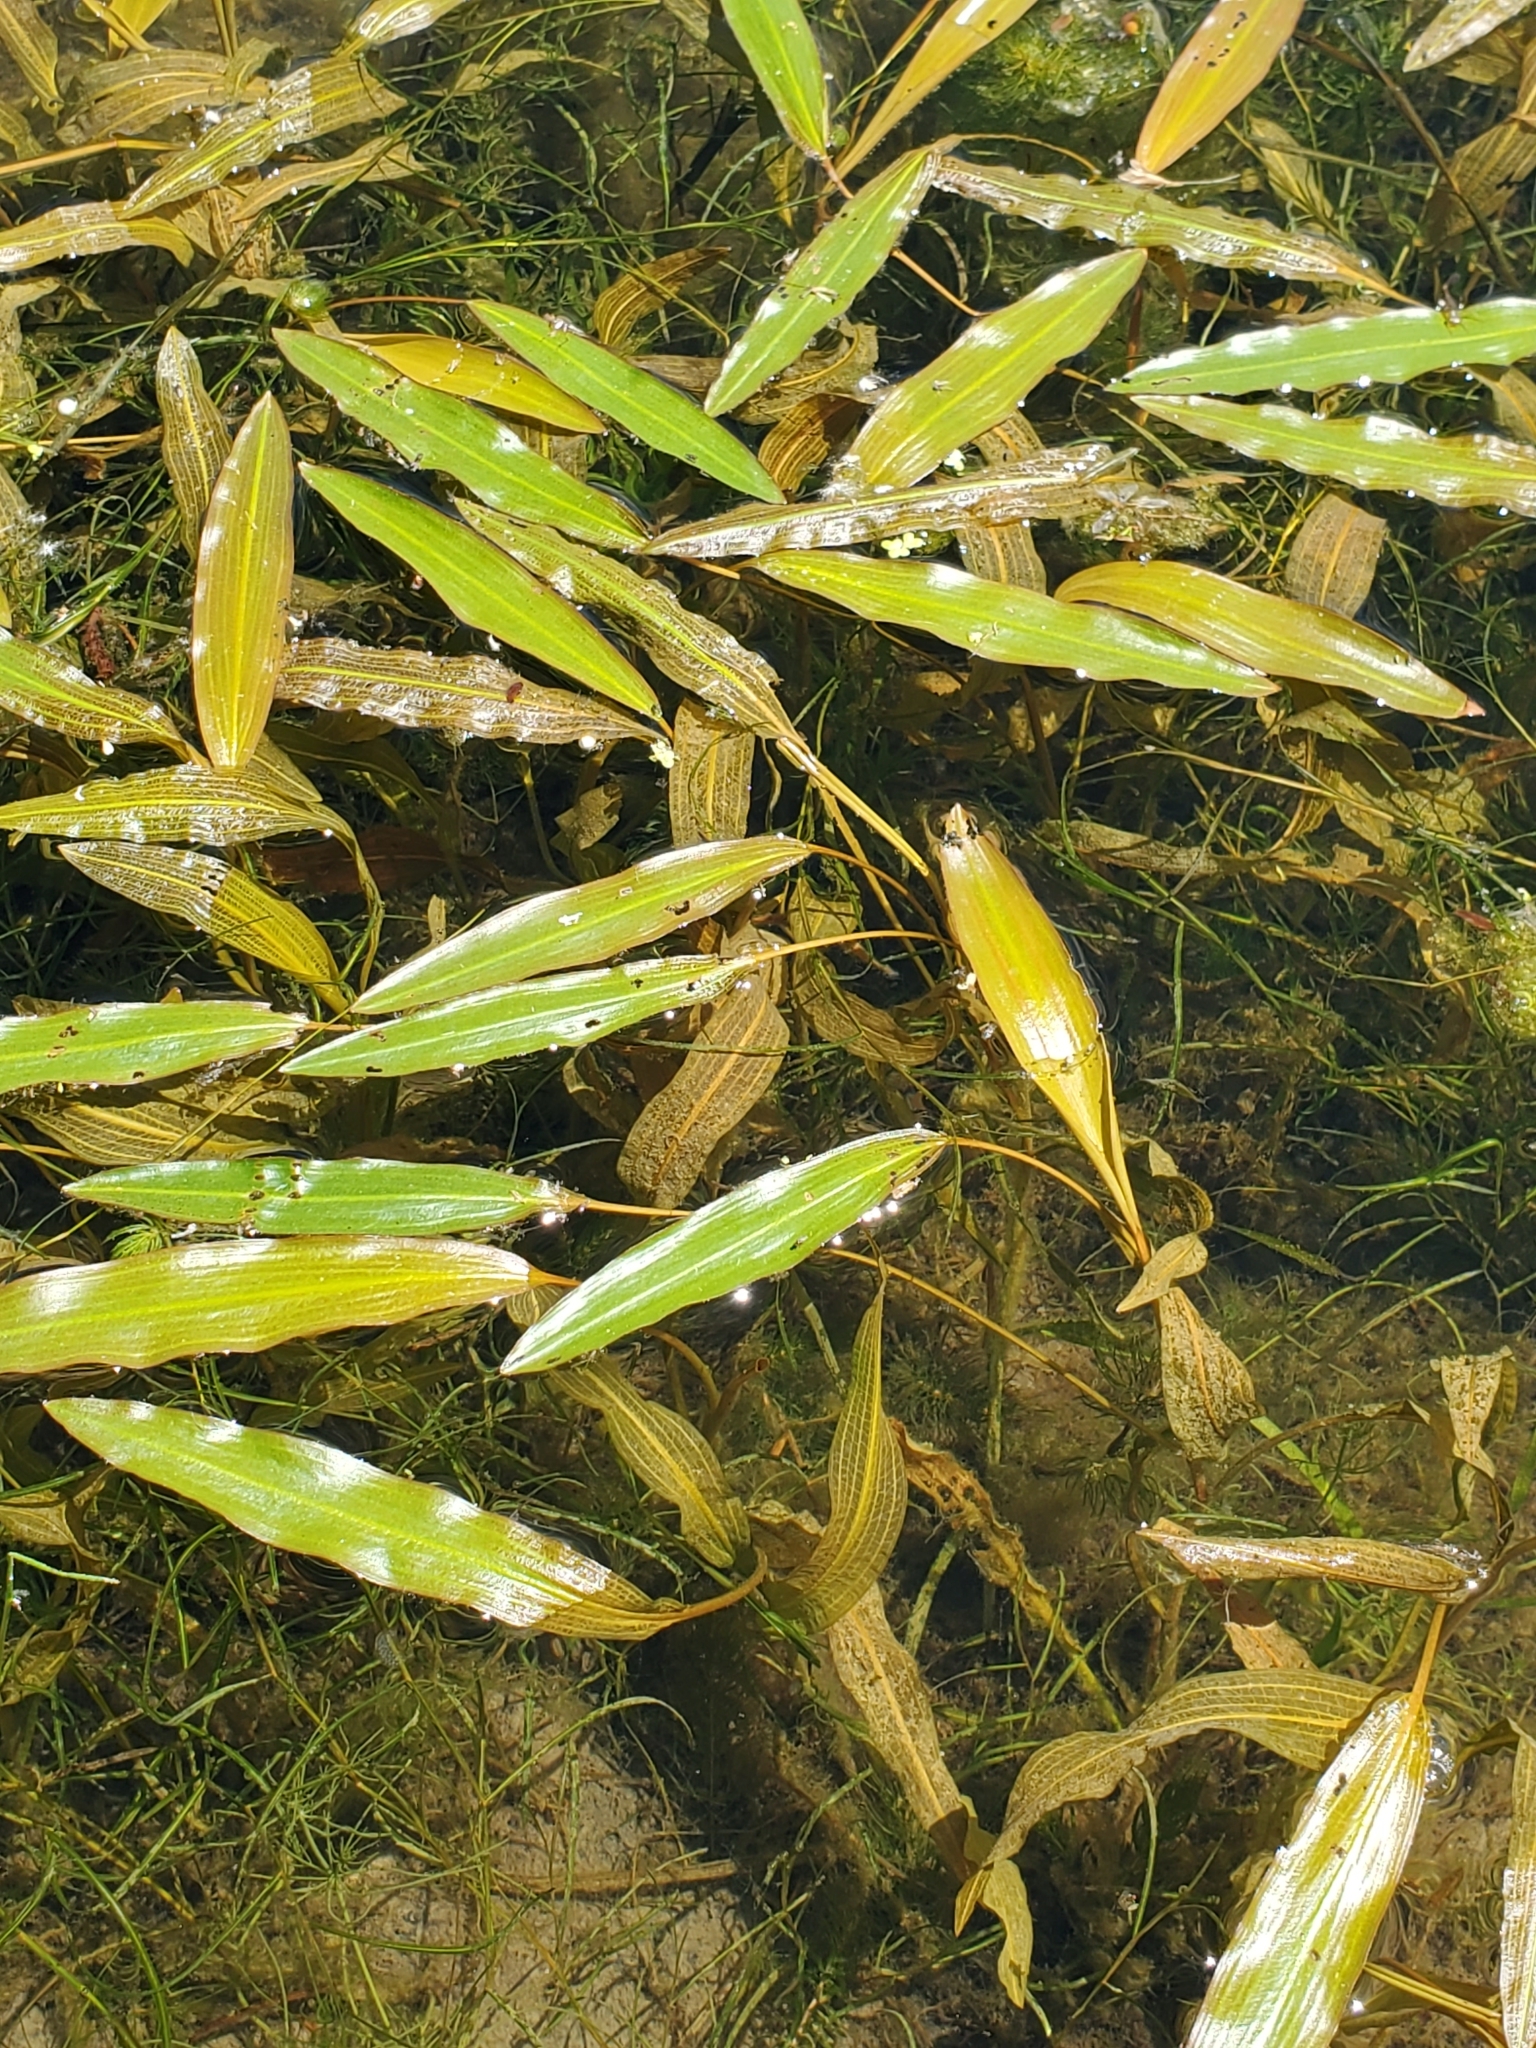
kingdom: Plantae
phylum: Tracheophyta
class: Liliopsida
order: Alismatales
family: Potamogetonaceae
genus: Potamogeton
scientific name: Potamogeton nodosus
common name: Loddon pondweed
